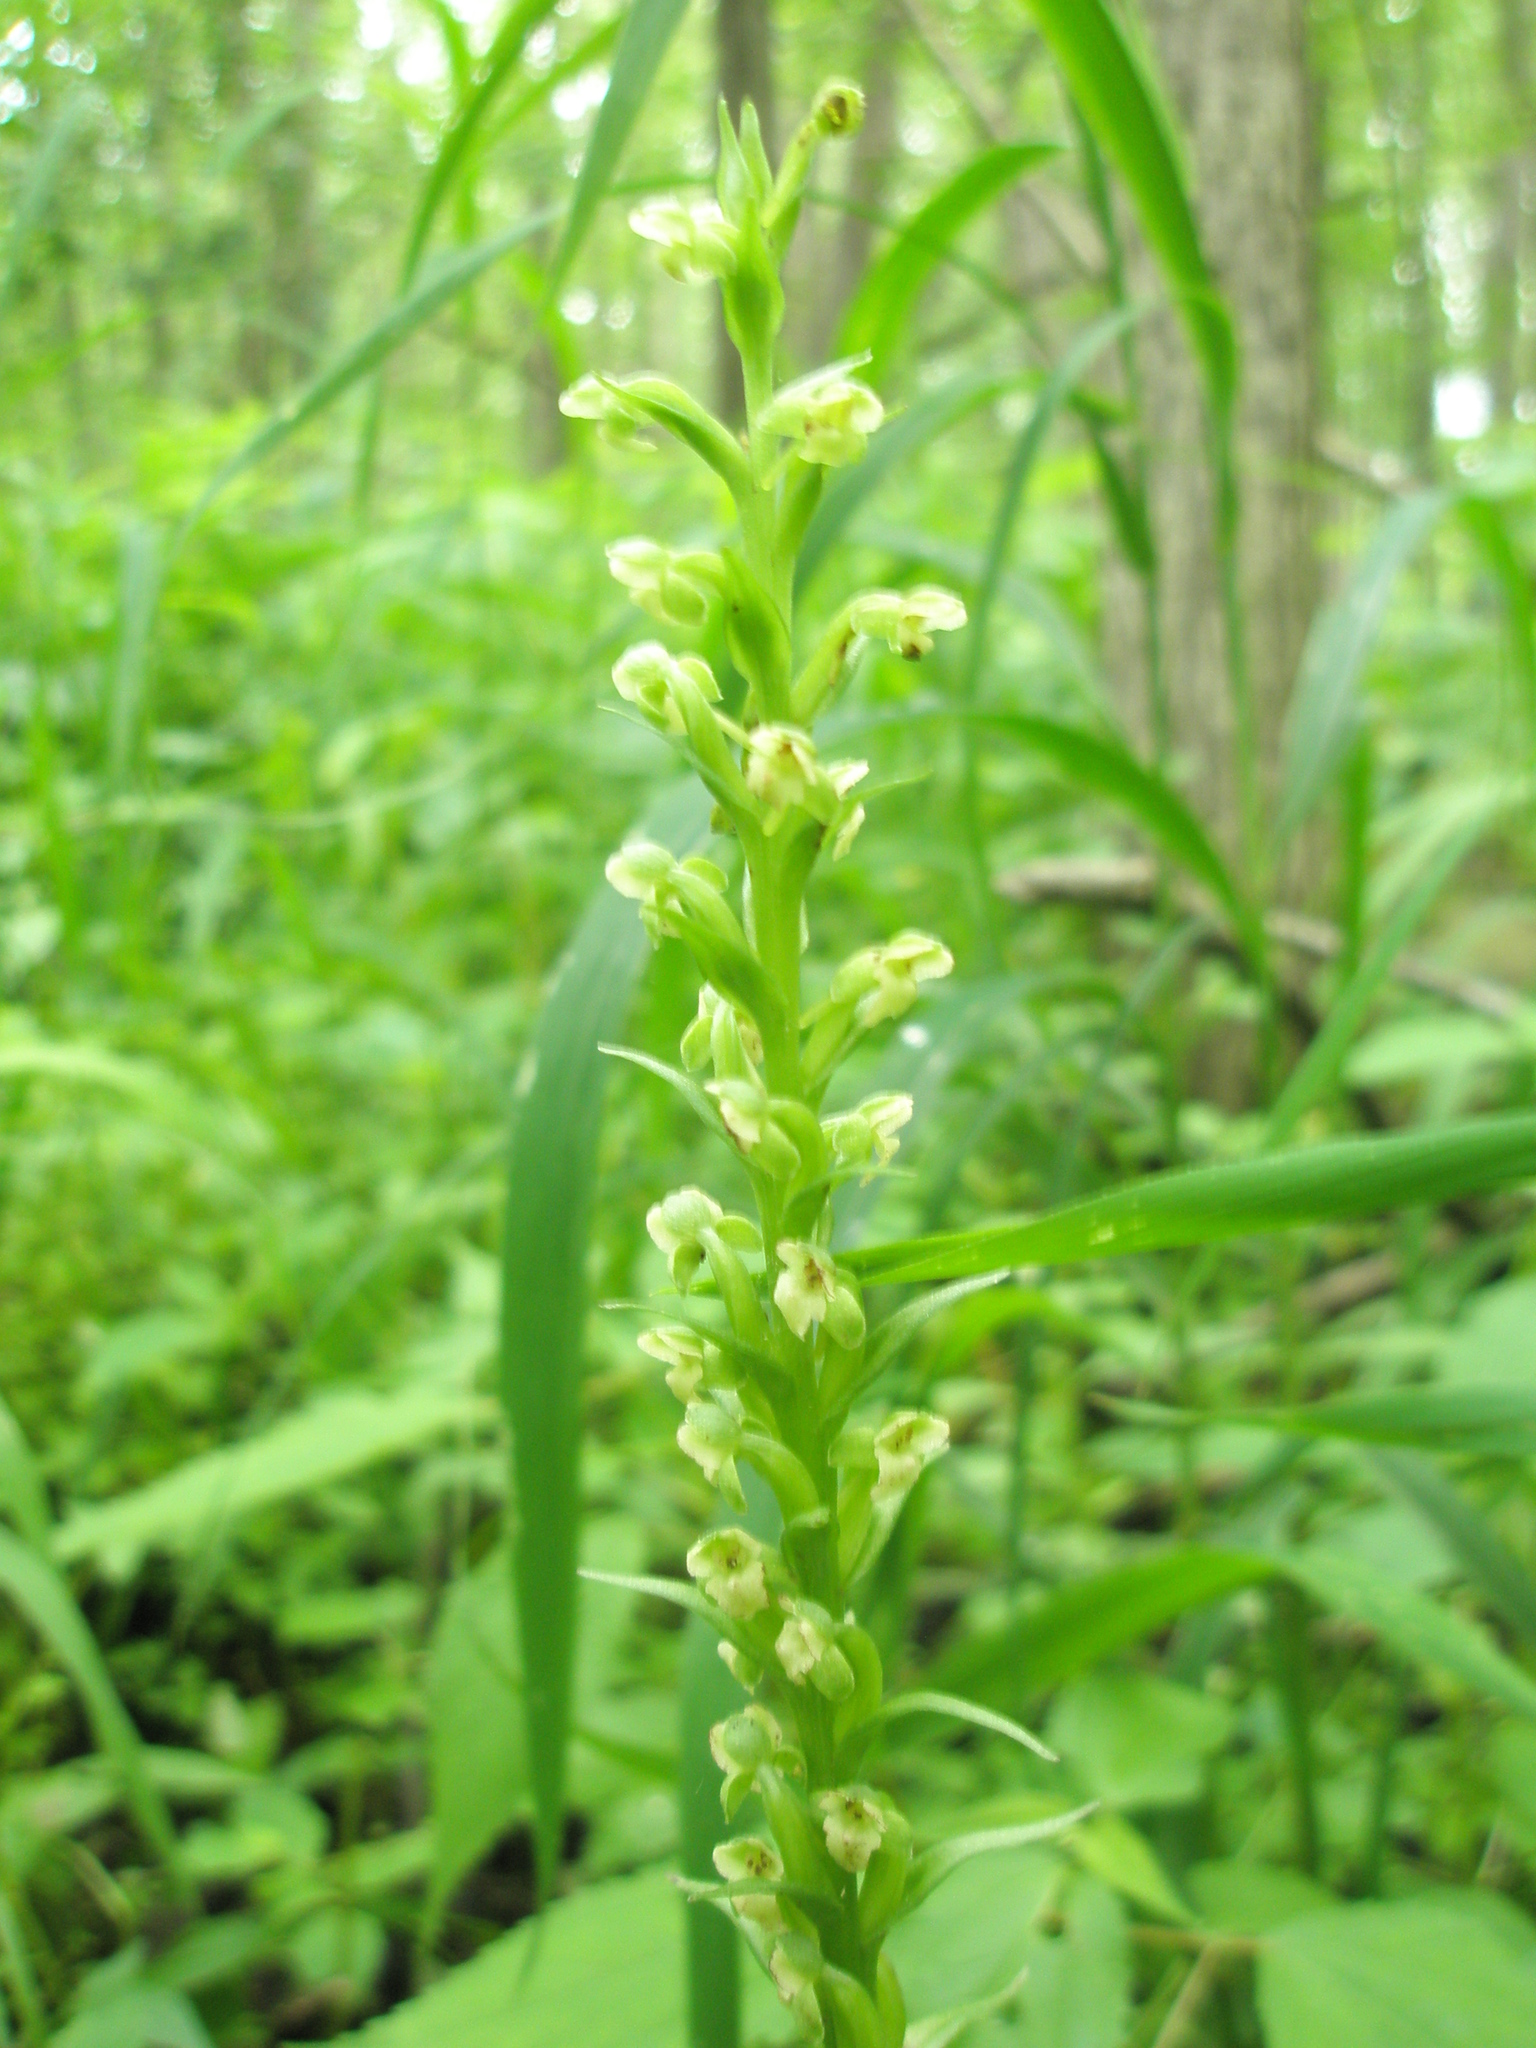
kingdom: Plantae
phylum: Tracheophyta
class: Liliopsida
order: Asparagales
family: Orchidaceae
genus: Platanthera
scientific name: Platanthera flava
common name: Gypsy-spikes
